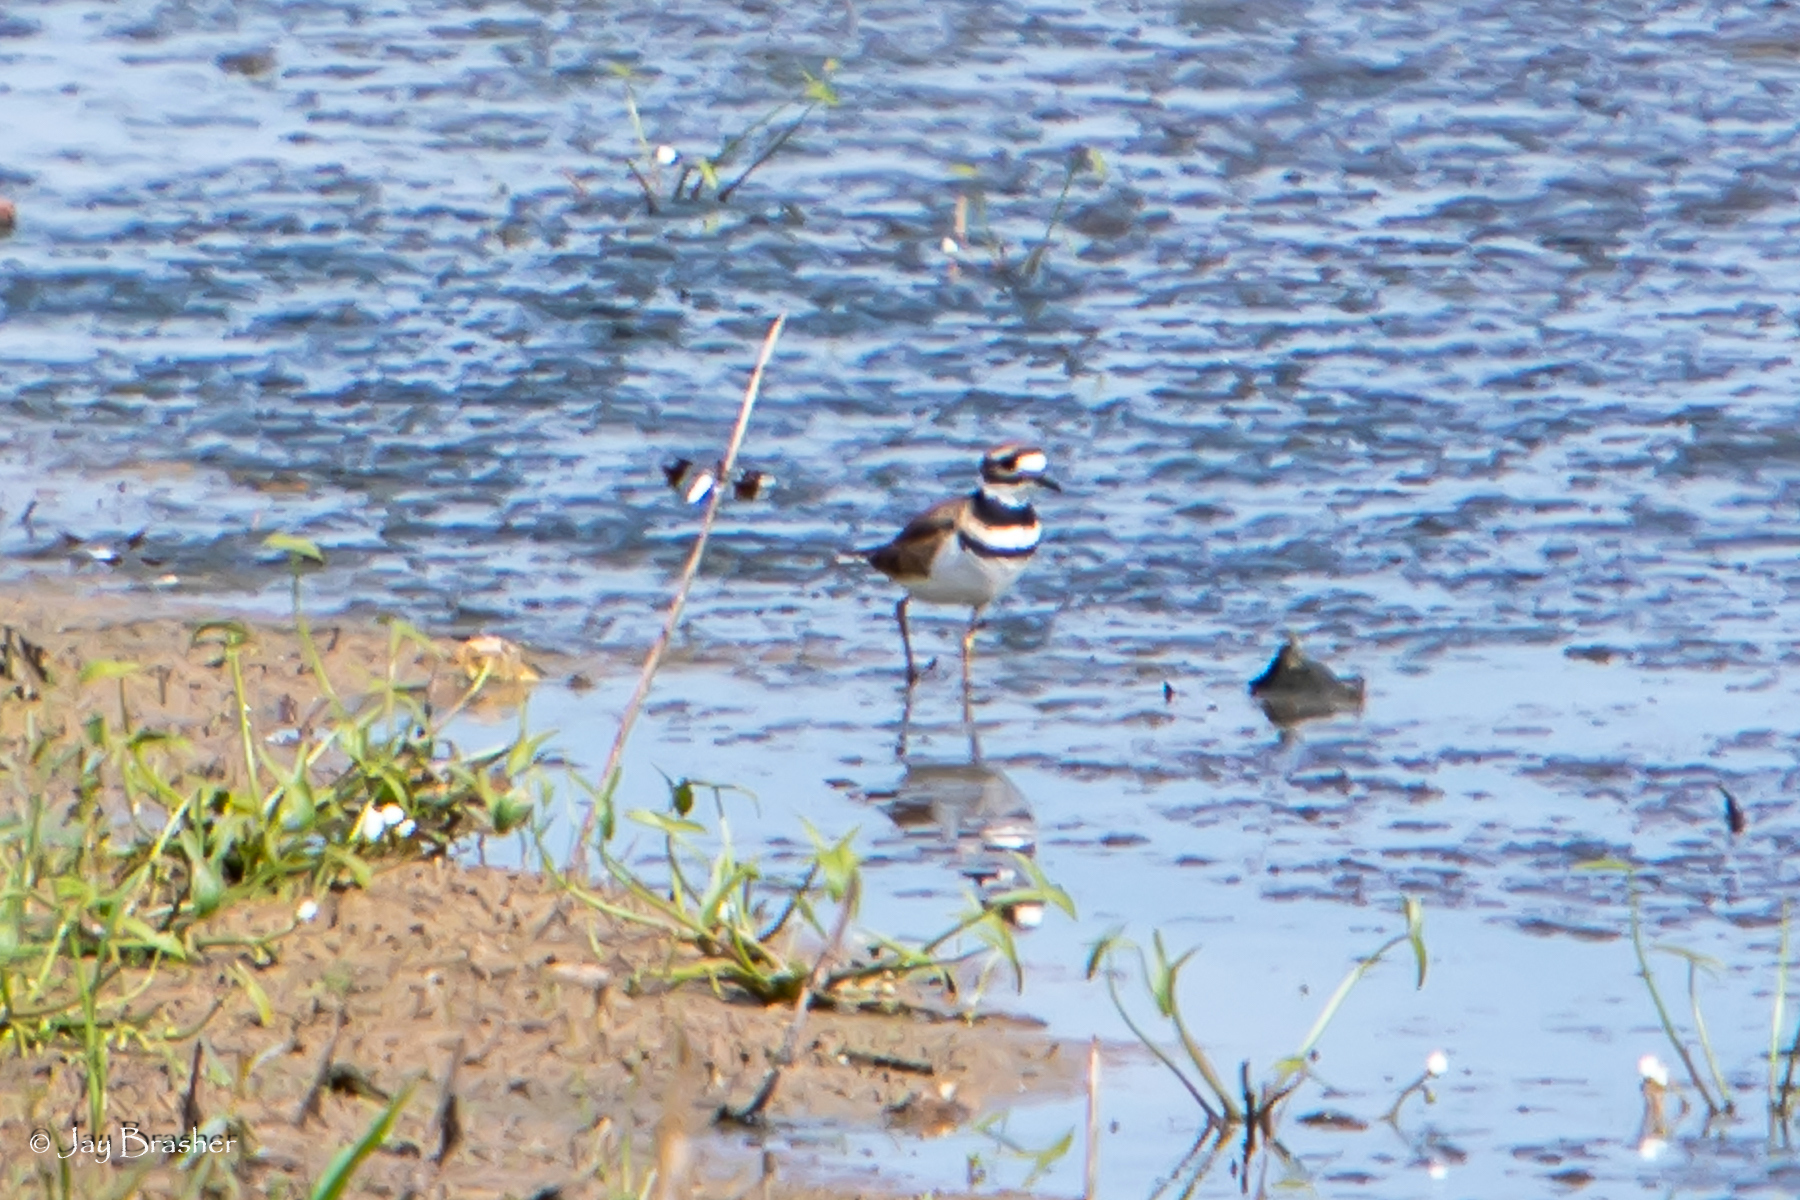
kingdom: Animalia
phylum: Chordata
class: Aves
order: Charadriiformes
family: Charadriidae
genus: Charadrius
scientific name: Charadrius vociferus
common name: Killdeer
